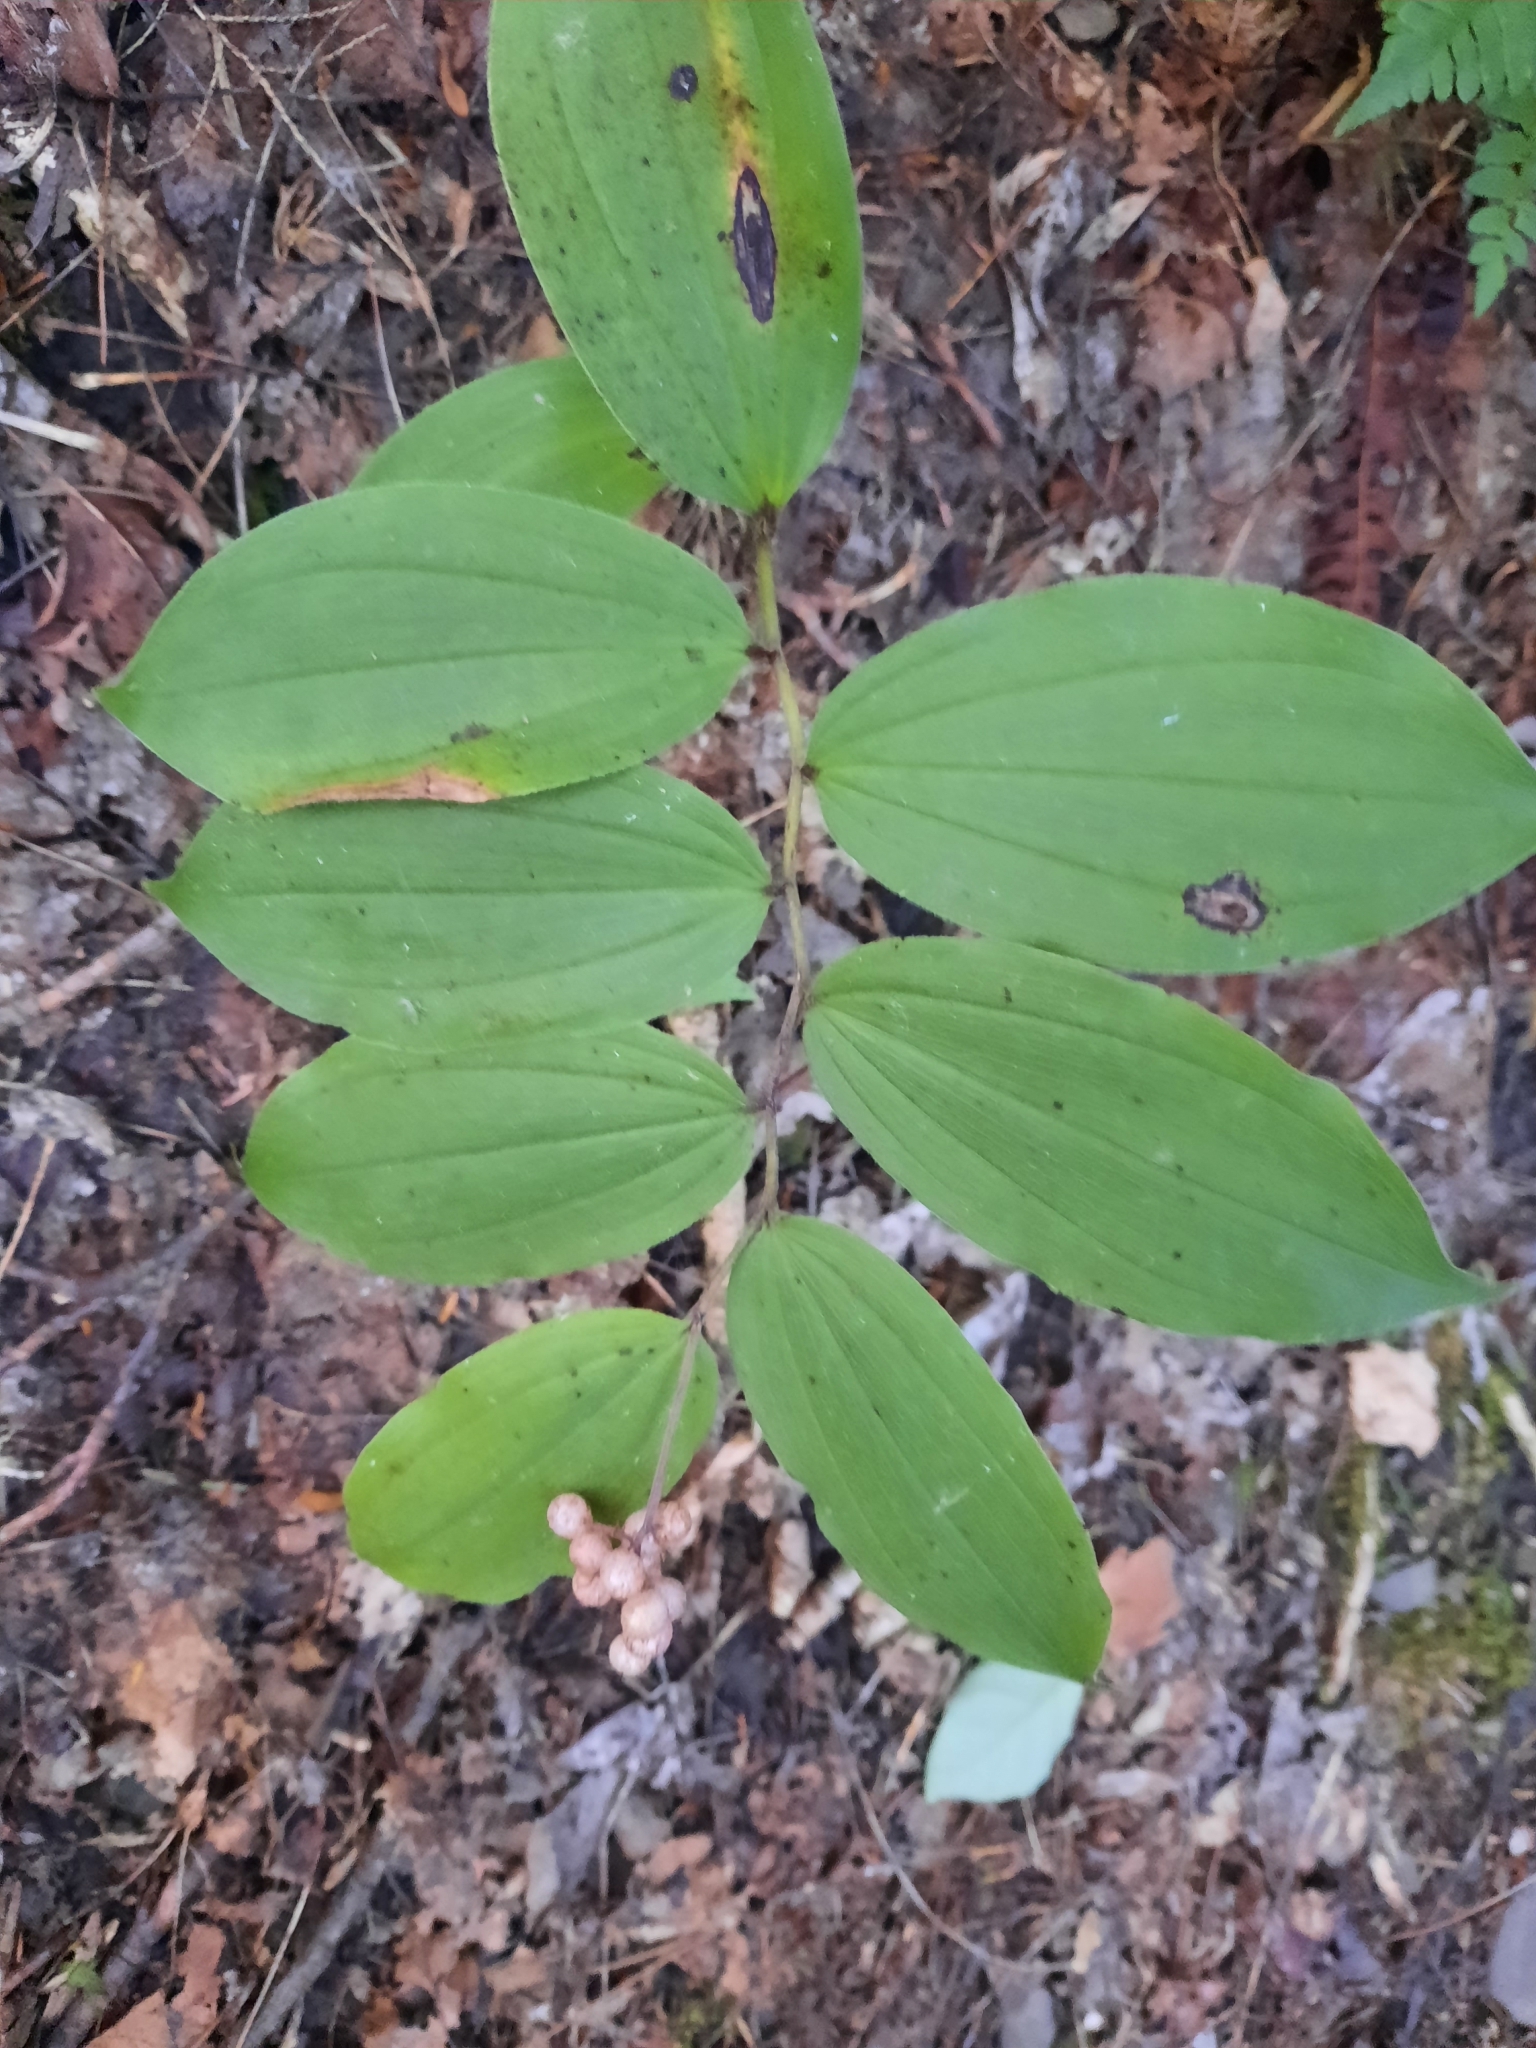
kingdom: Plantae
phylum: Tracheophyta
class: Liliopsida
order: Asparagales
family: Asparagaceae
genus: Maianthemum
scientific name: Maianthemum racemosum
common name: False spikenard
